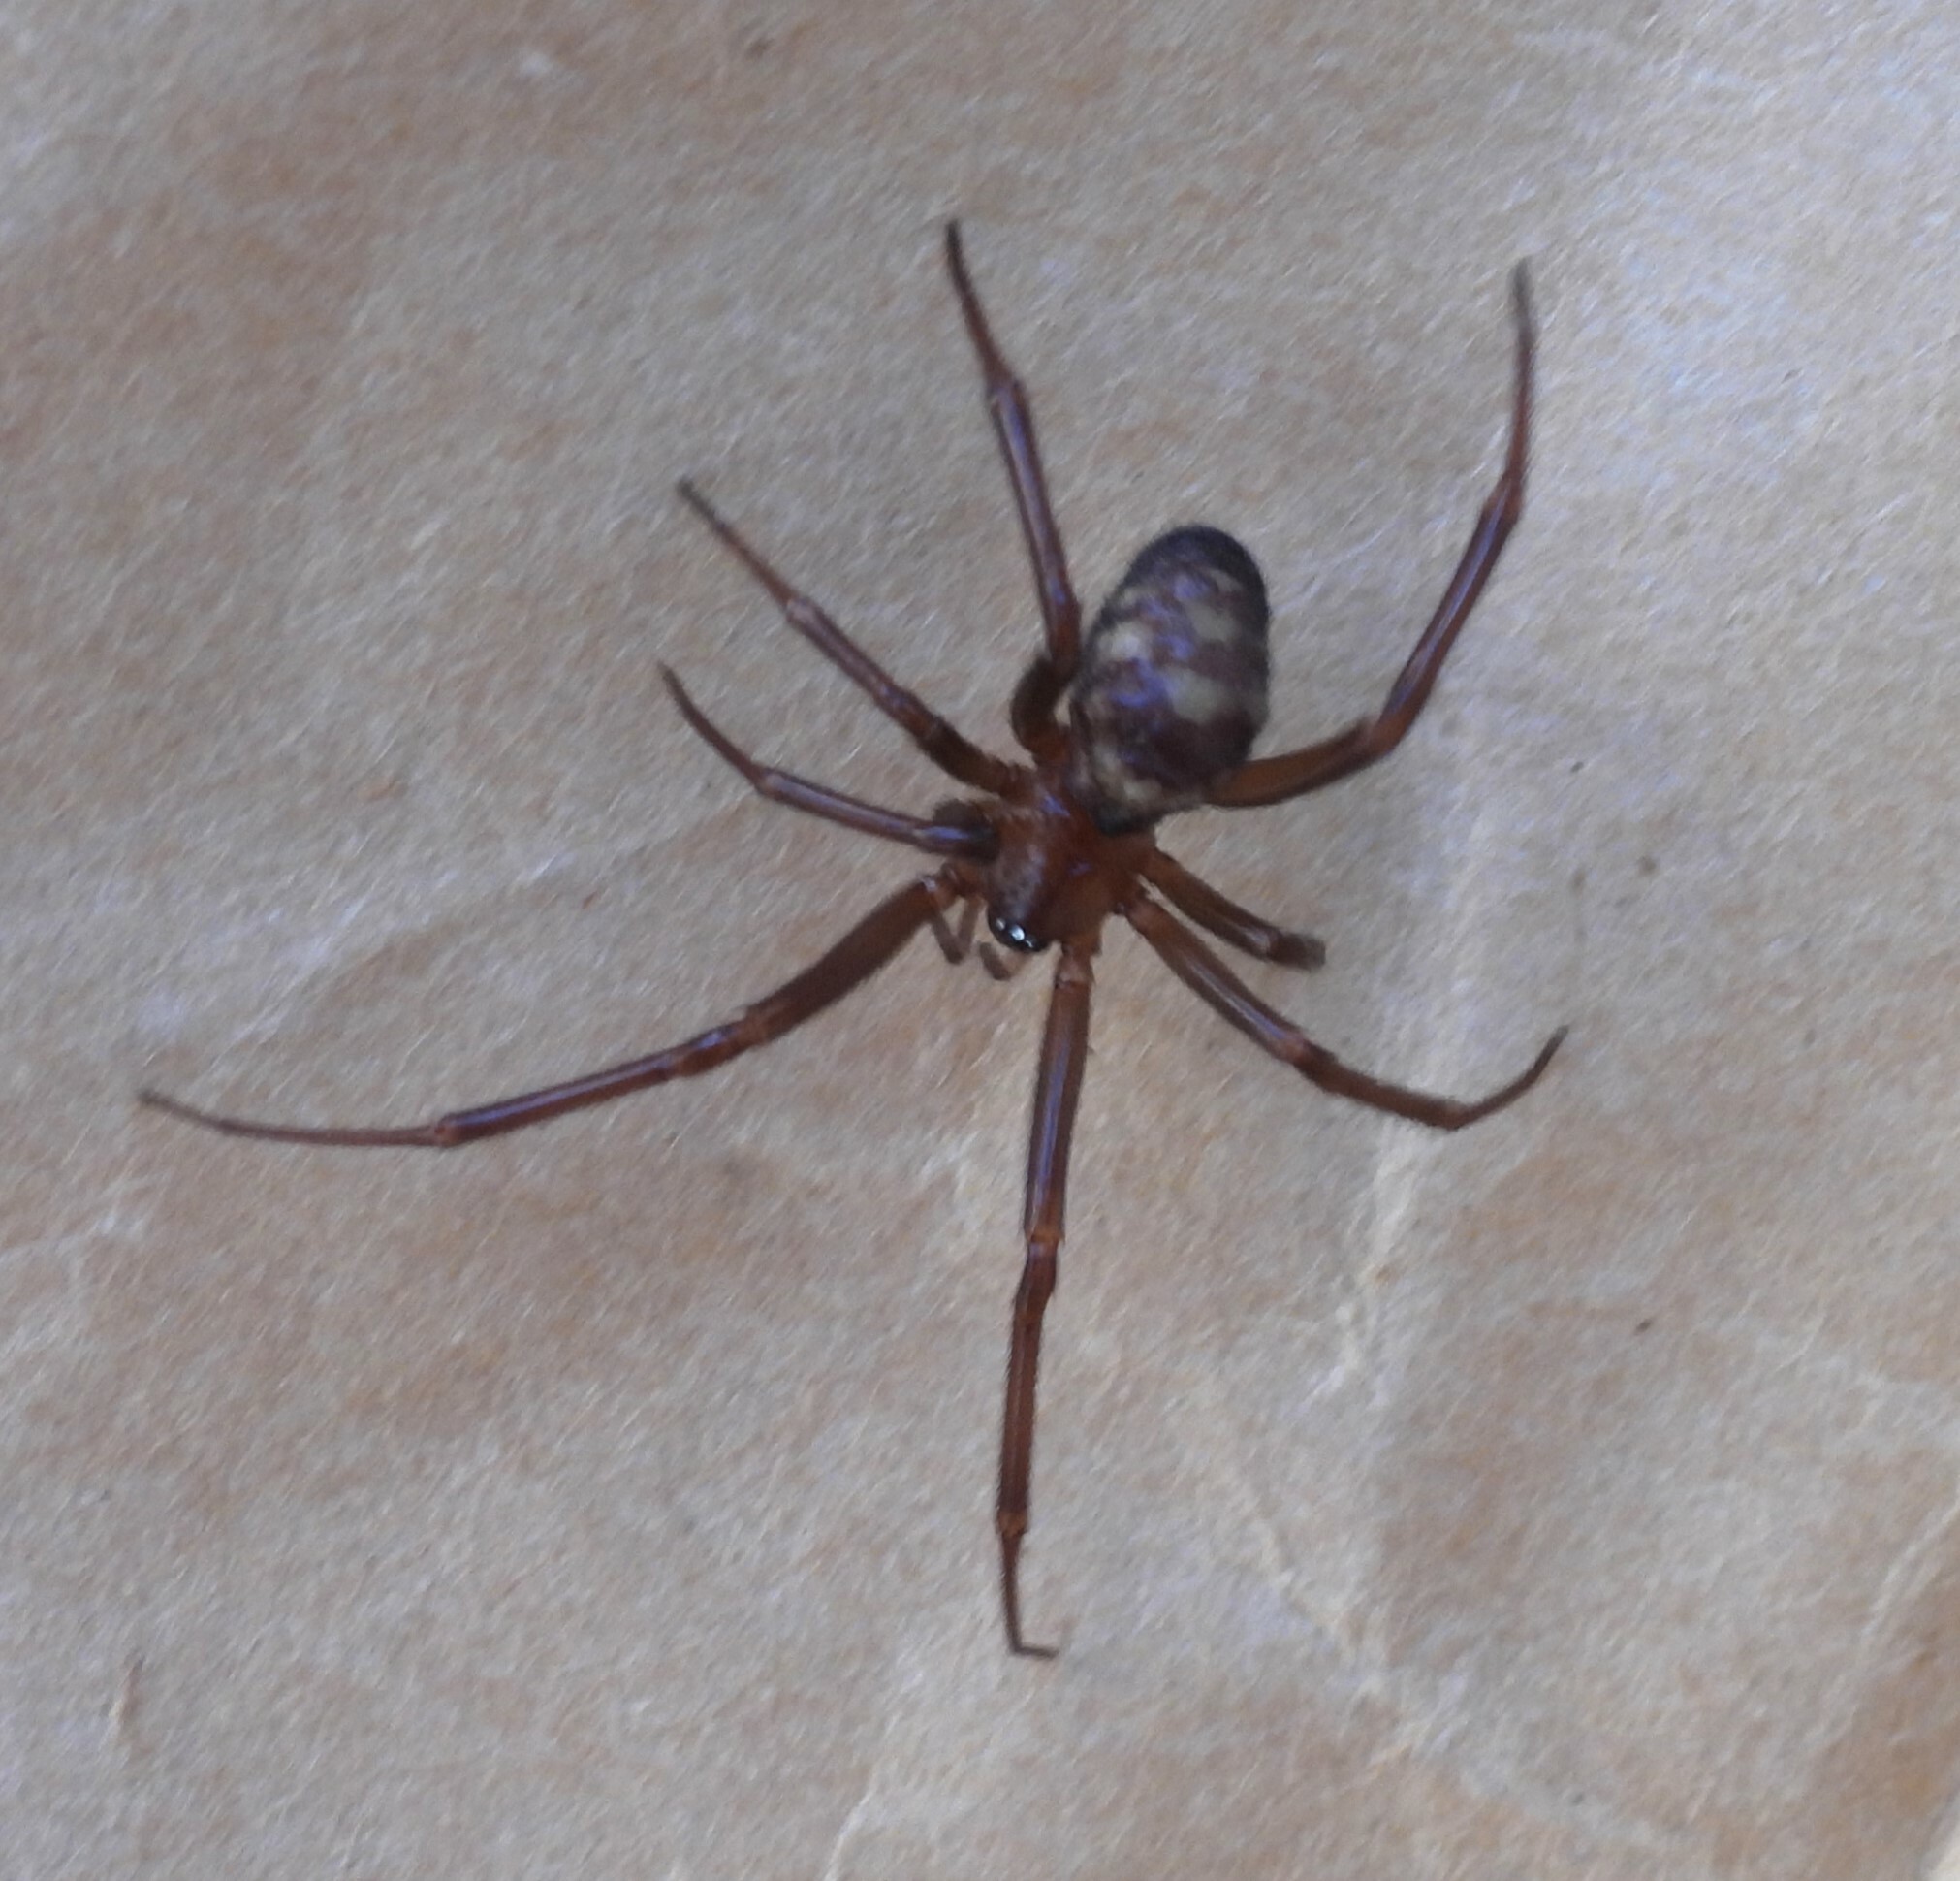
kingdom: Animalia
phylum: Arthropoda
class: Arachnida
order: Araneae
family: Theridiidae
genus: Steatoda
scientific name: Steatoda grossa
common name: False black widow
